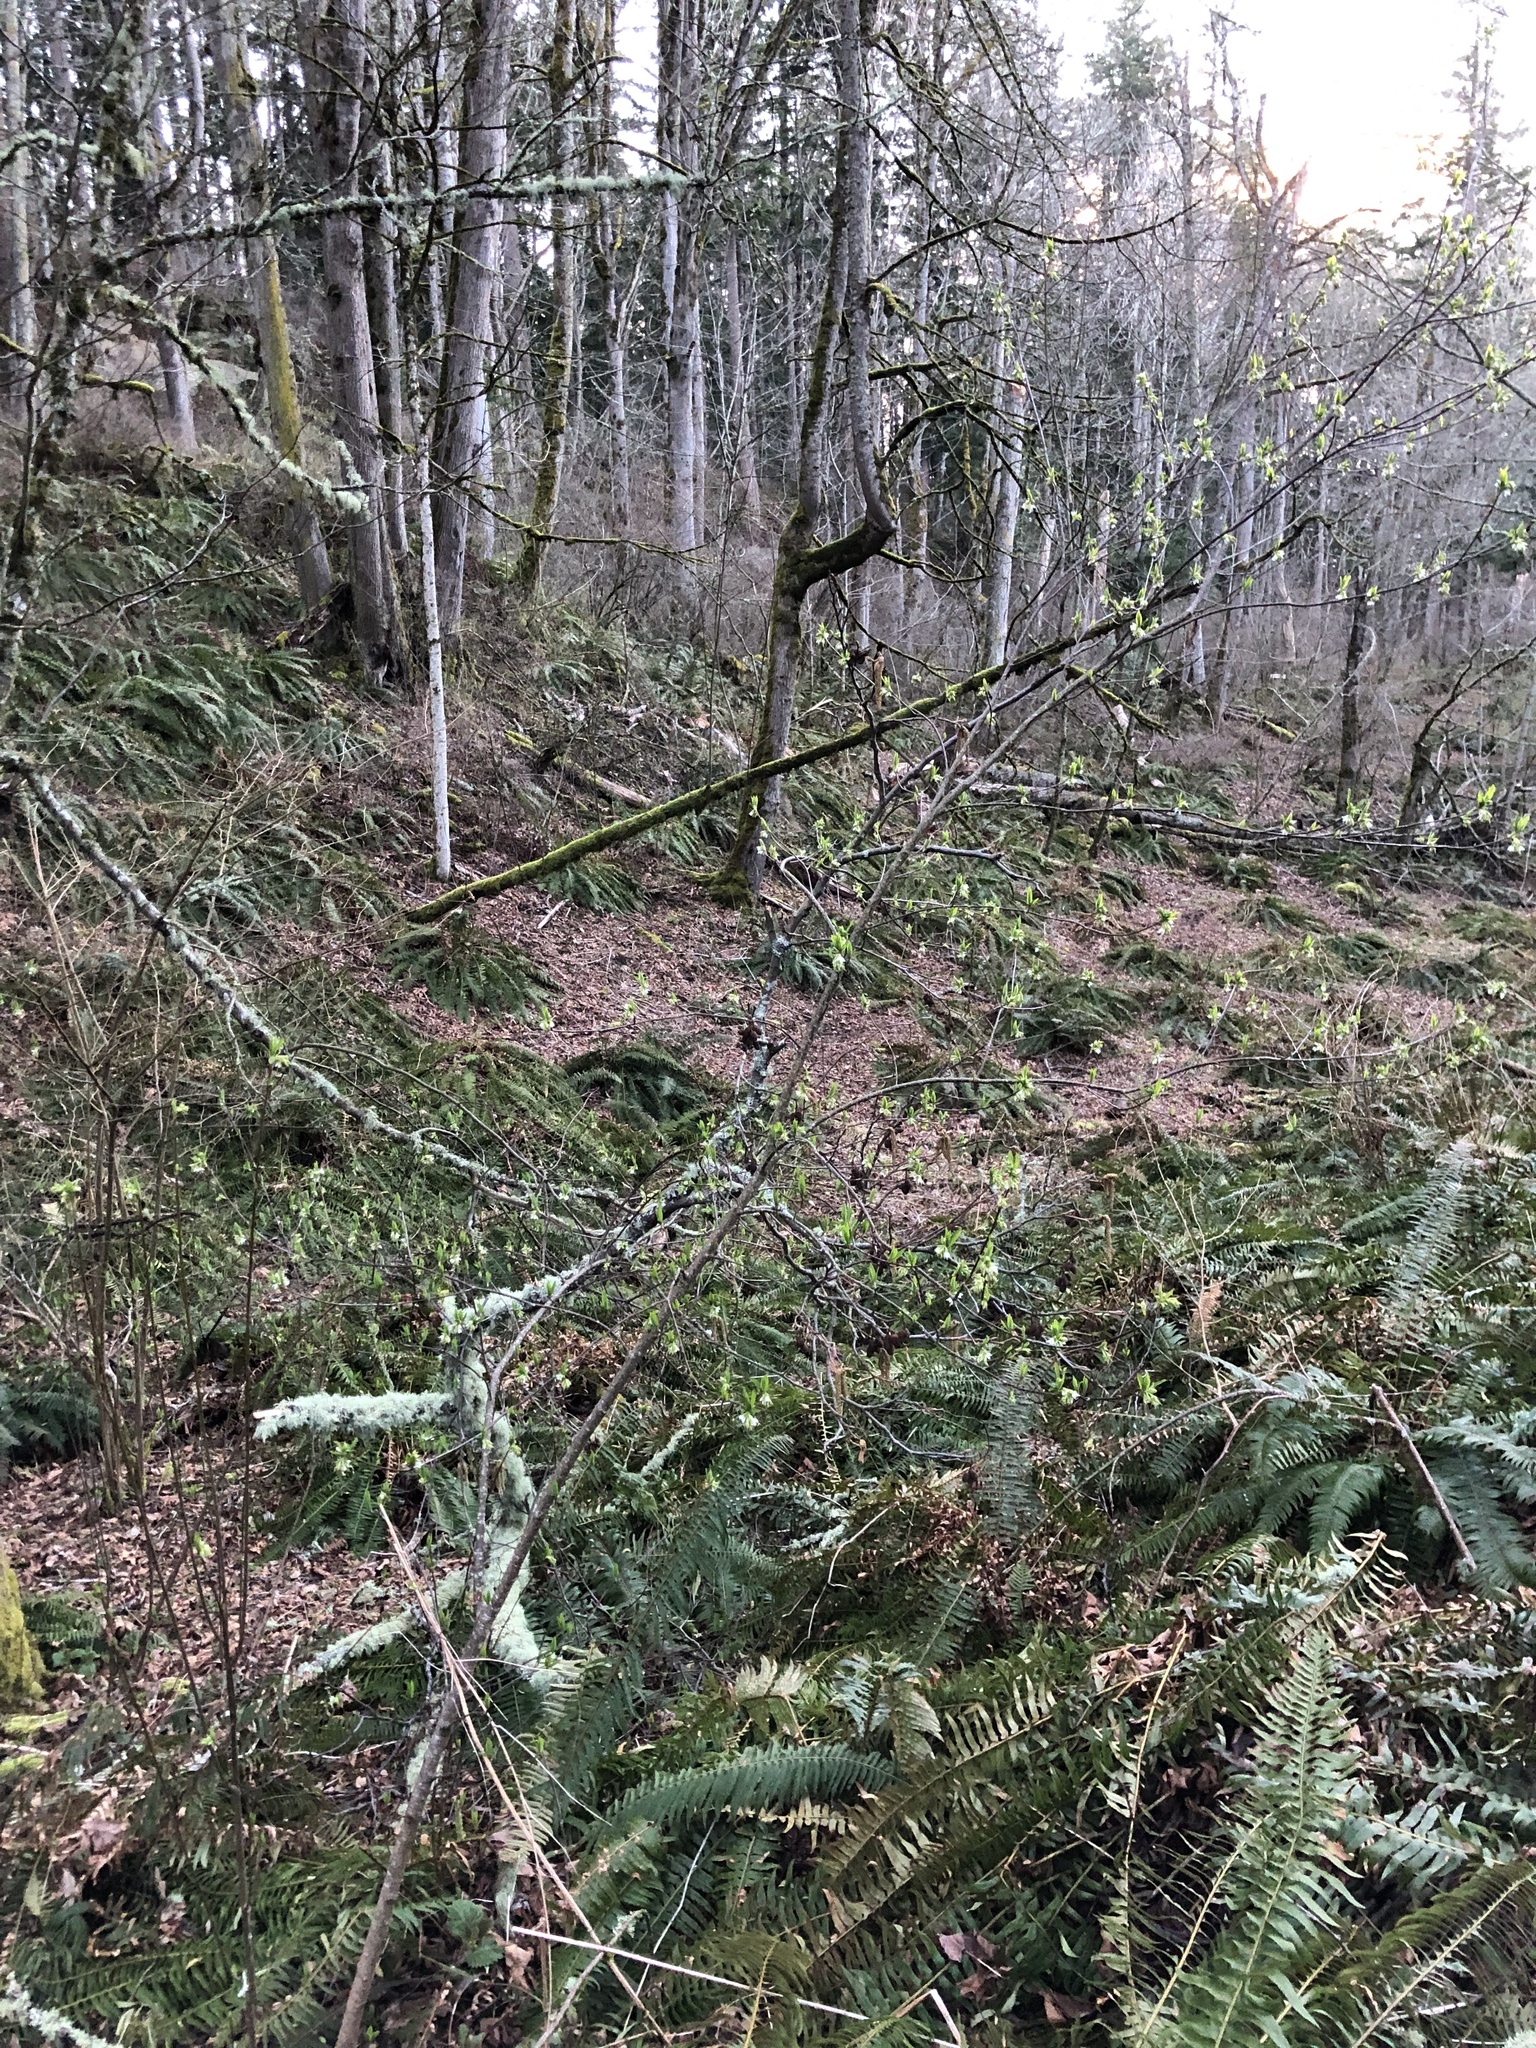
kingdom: Plantae
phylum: Tracheophyta
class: Magnoliopsida
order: Rosales
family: Rosaceae
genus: Oemleria
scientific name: Oemleria cerasiformis
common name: Osoberry
